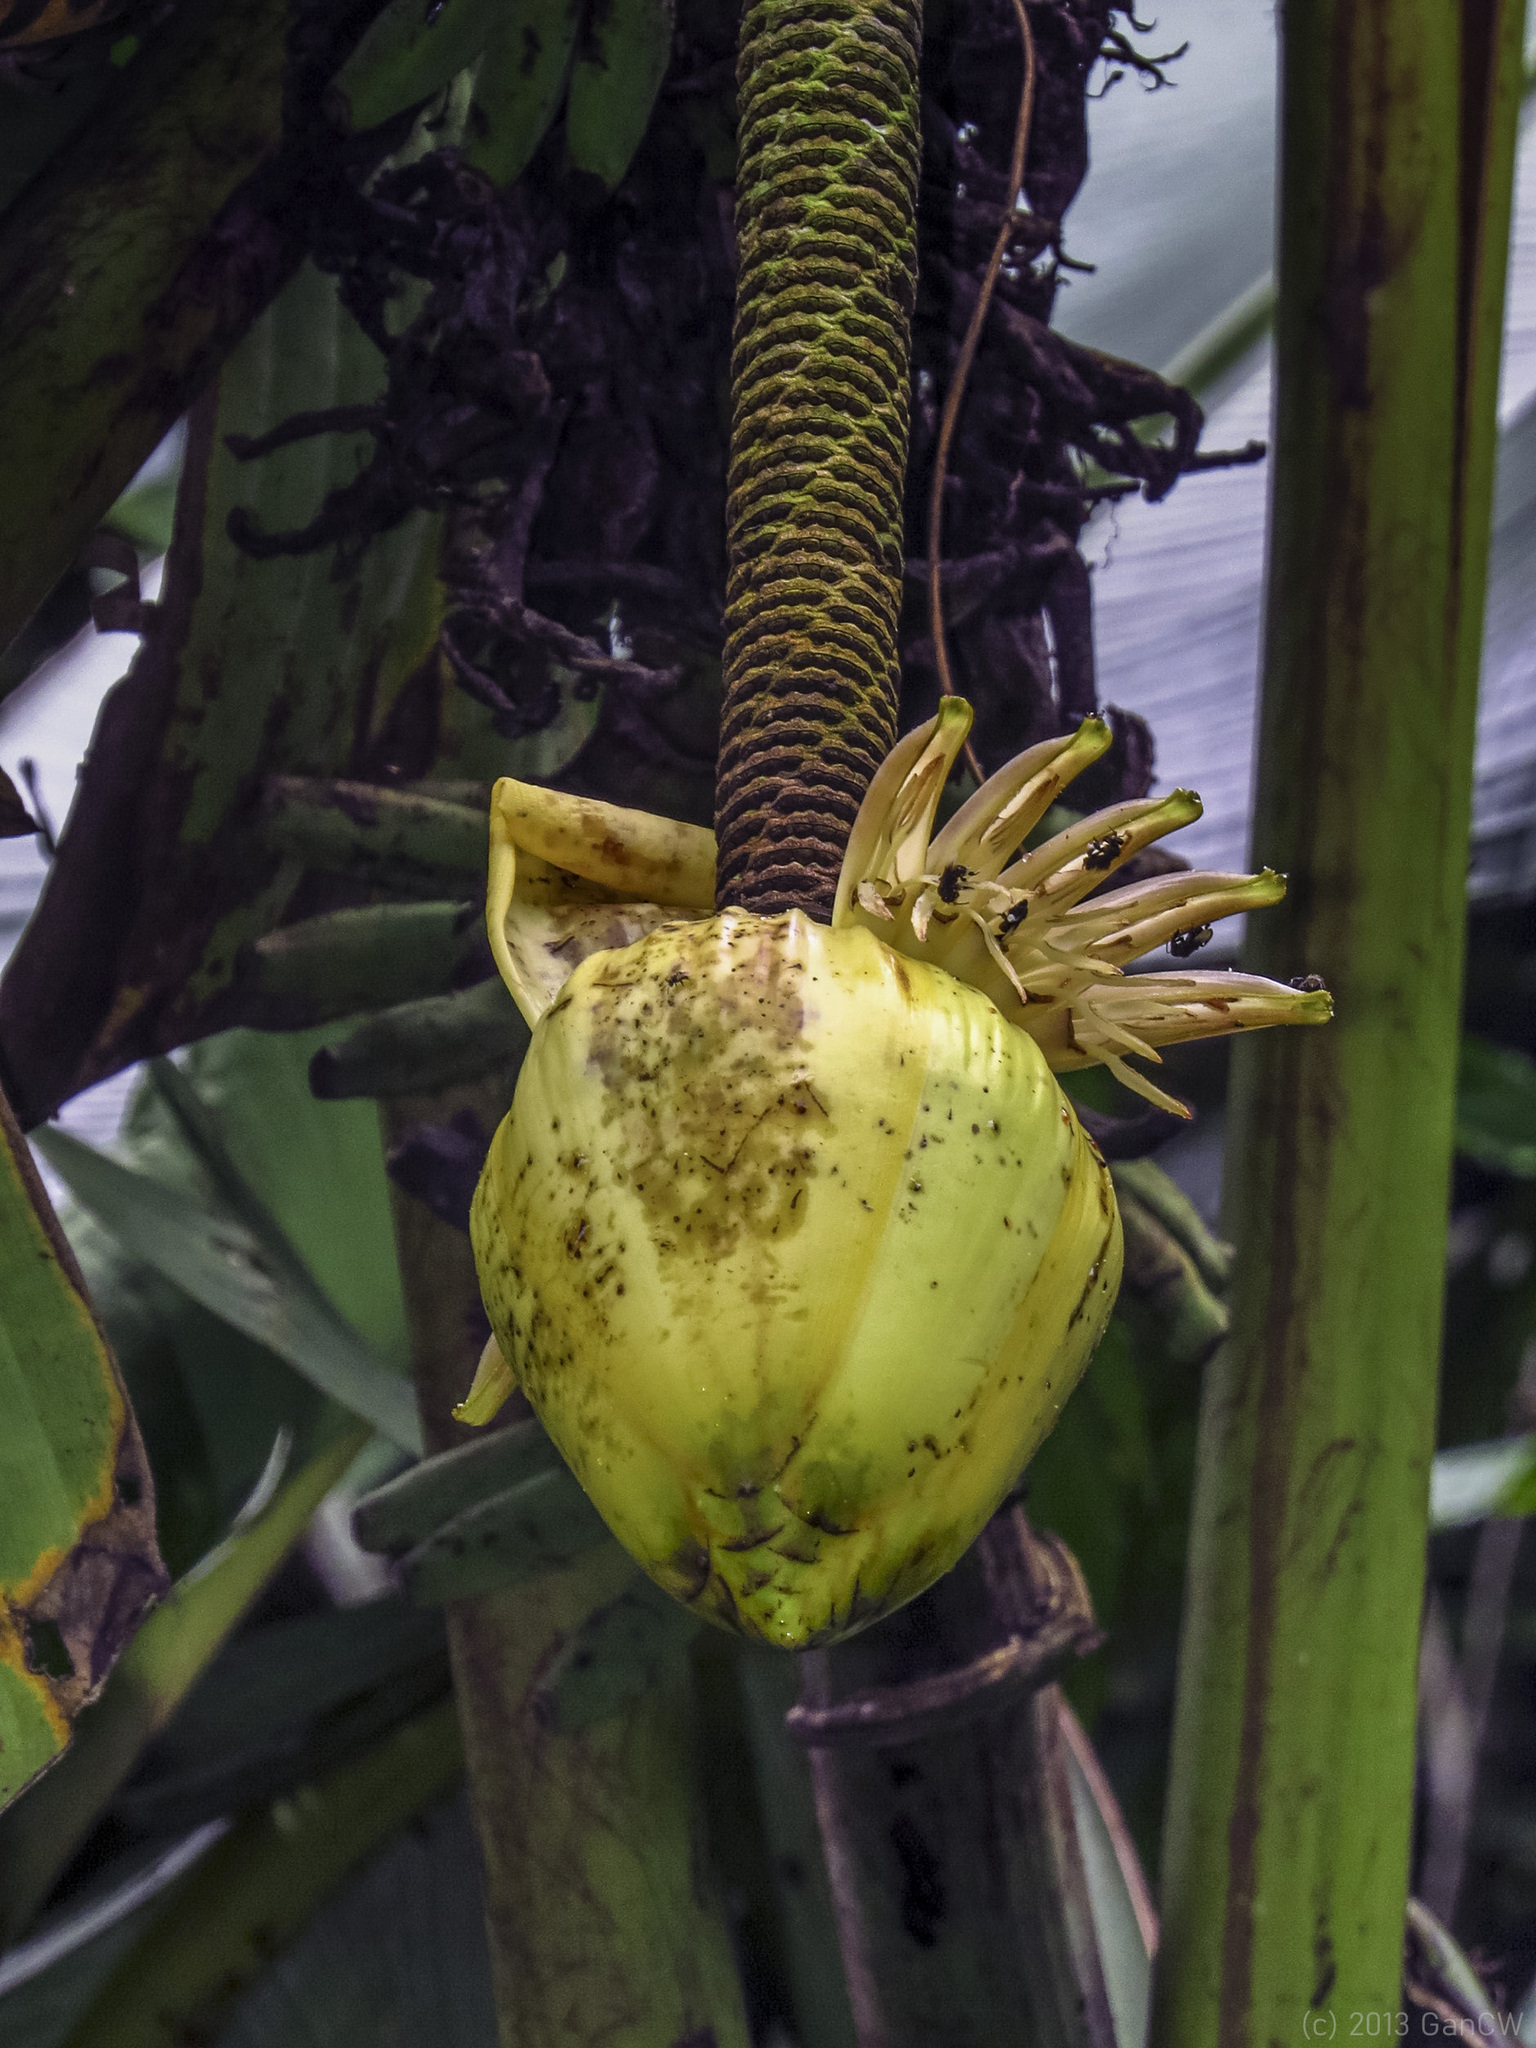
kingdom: Plantae
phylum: Tracheophyta
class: Liliopsida
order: Zingiberales
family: Musaceae
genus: Musa
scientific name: Musa borneensis
